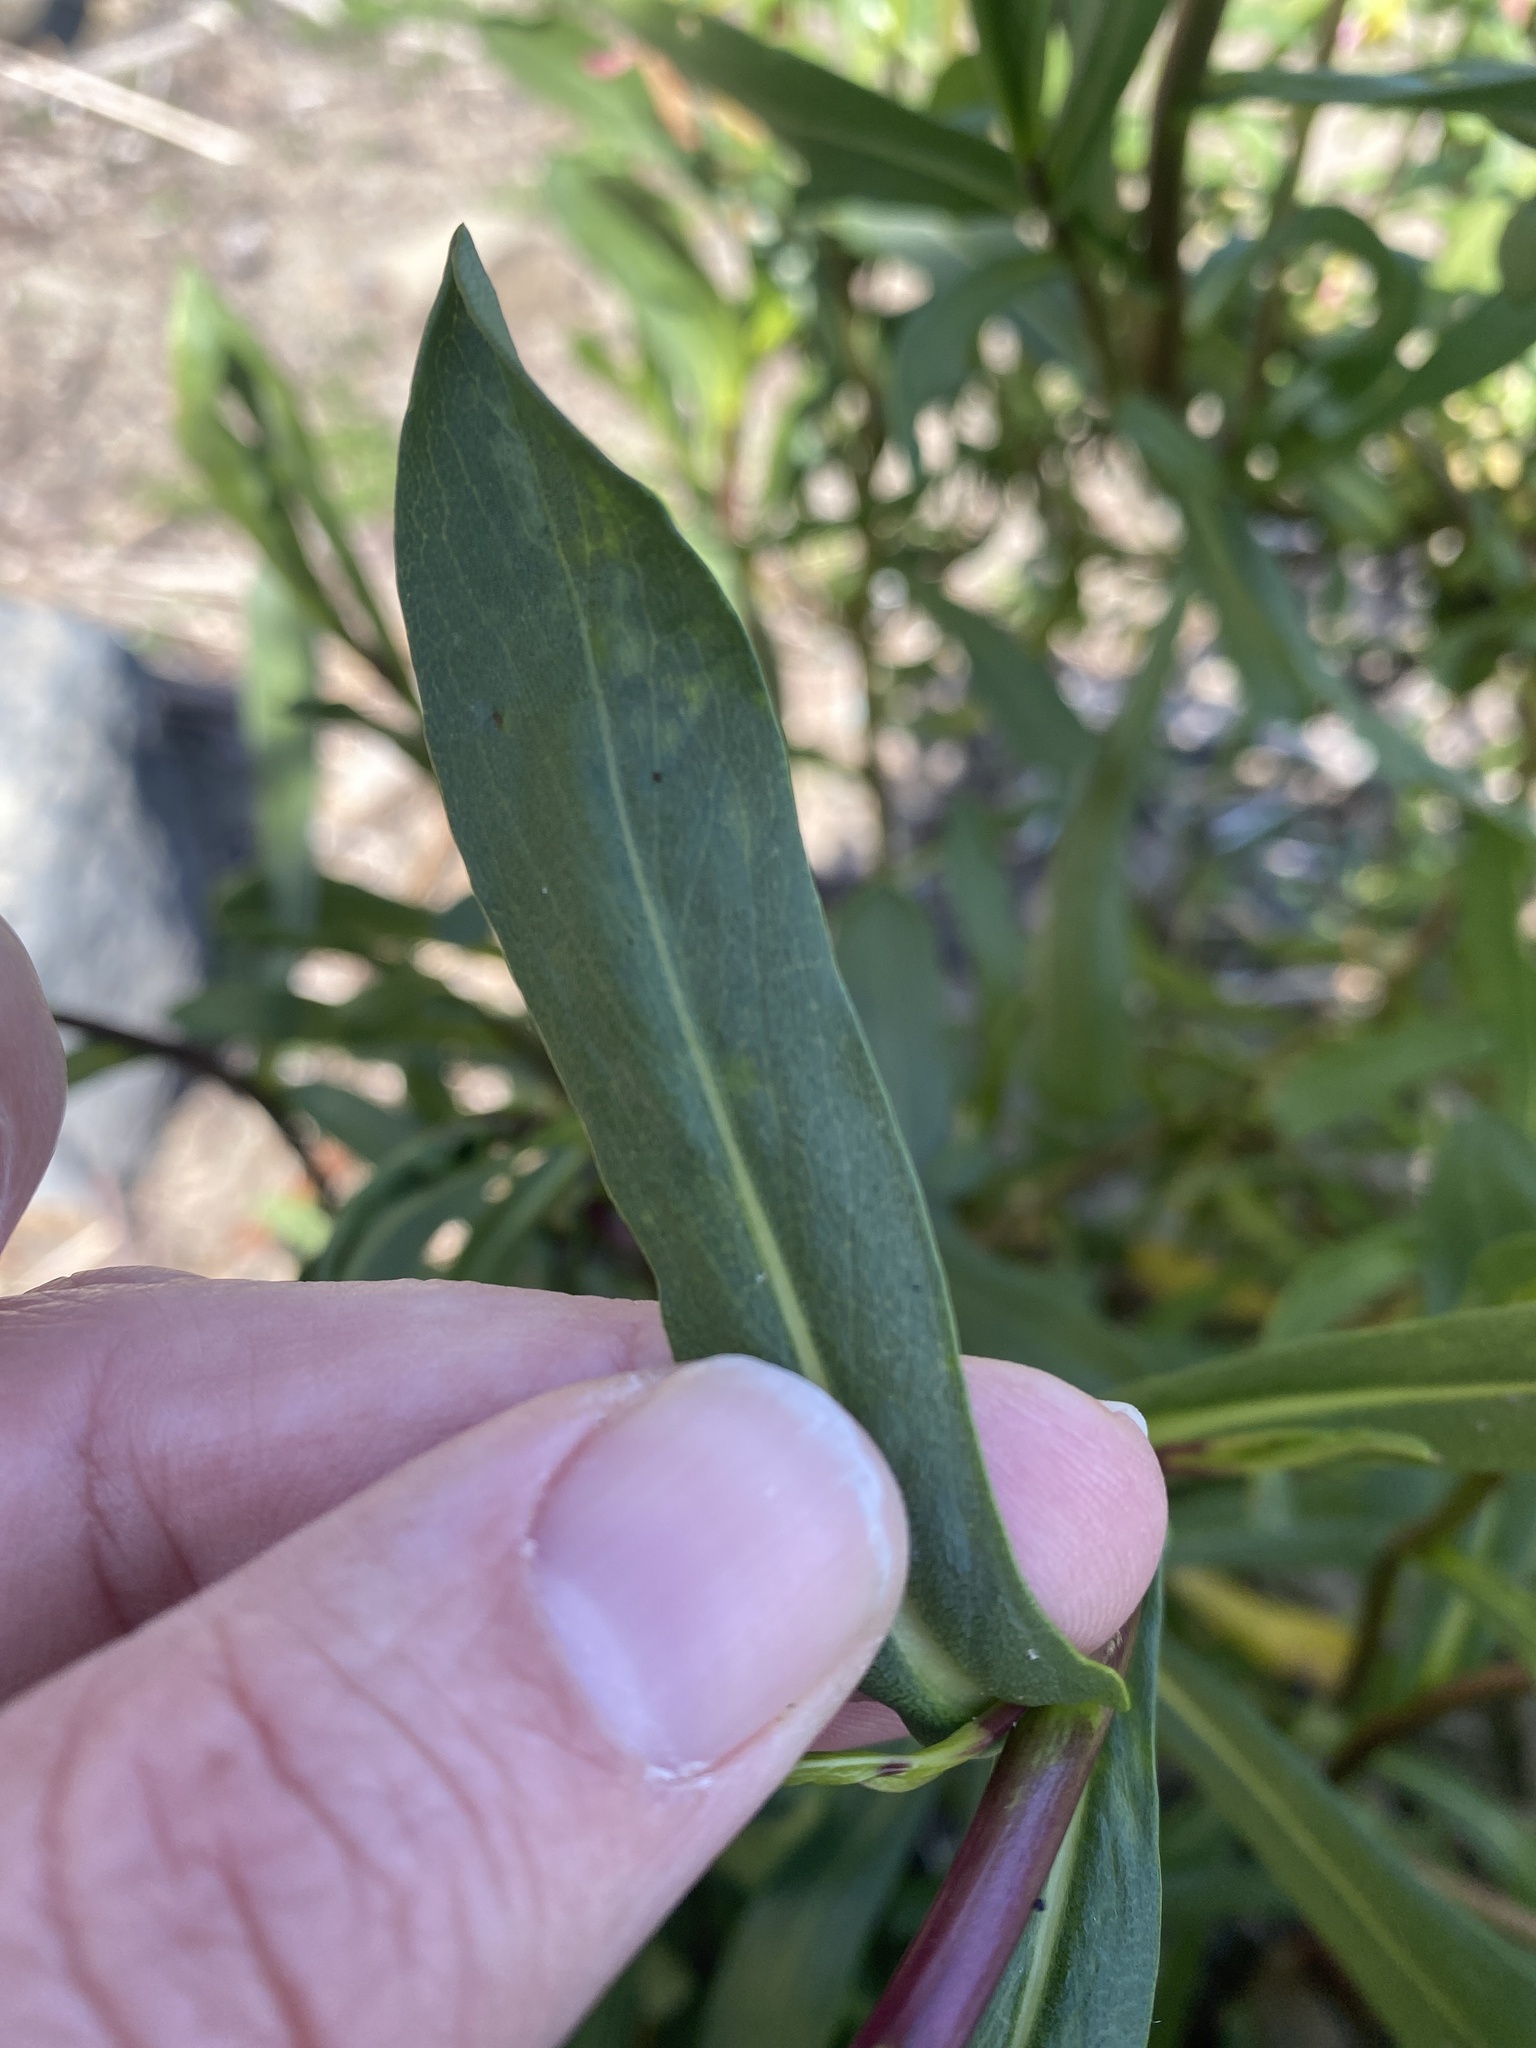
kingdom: Plantae
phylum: Tracheophyta
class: Magnoliopsida
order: Asterales
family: Asteraceae
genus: Grindelia
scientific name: Grindelia hirsutula
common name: Hairy gumweed
